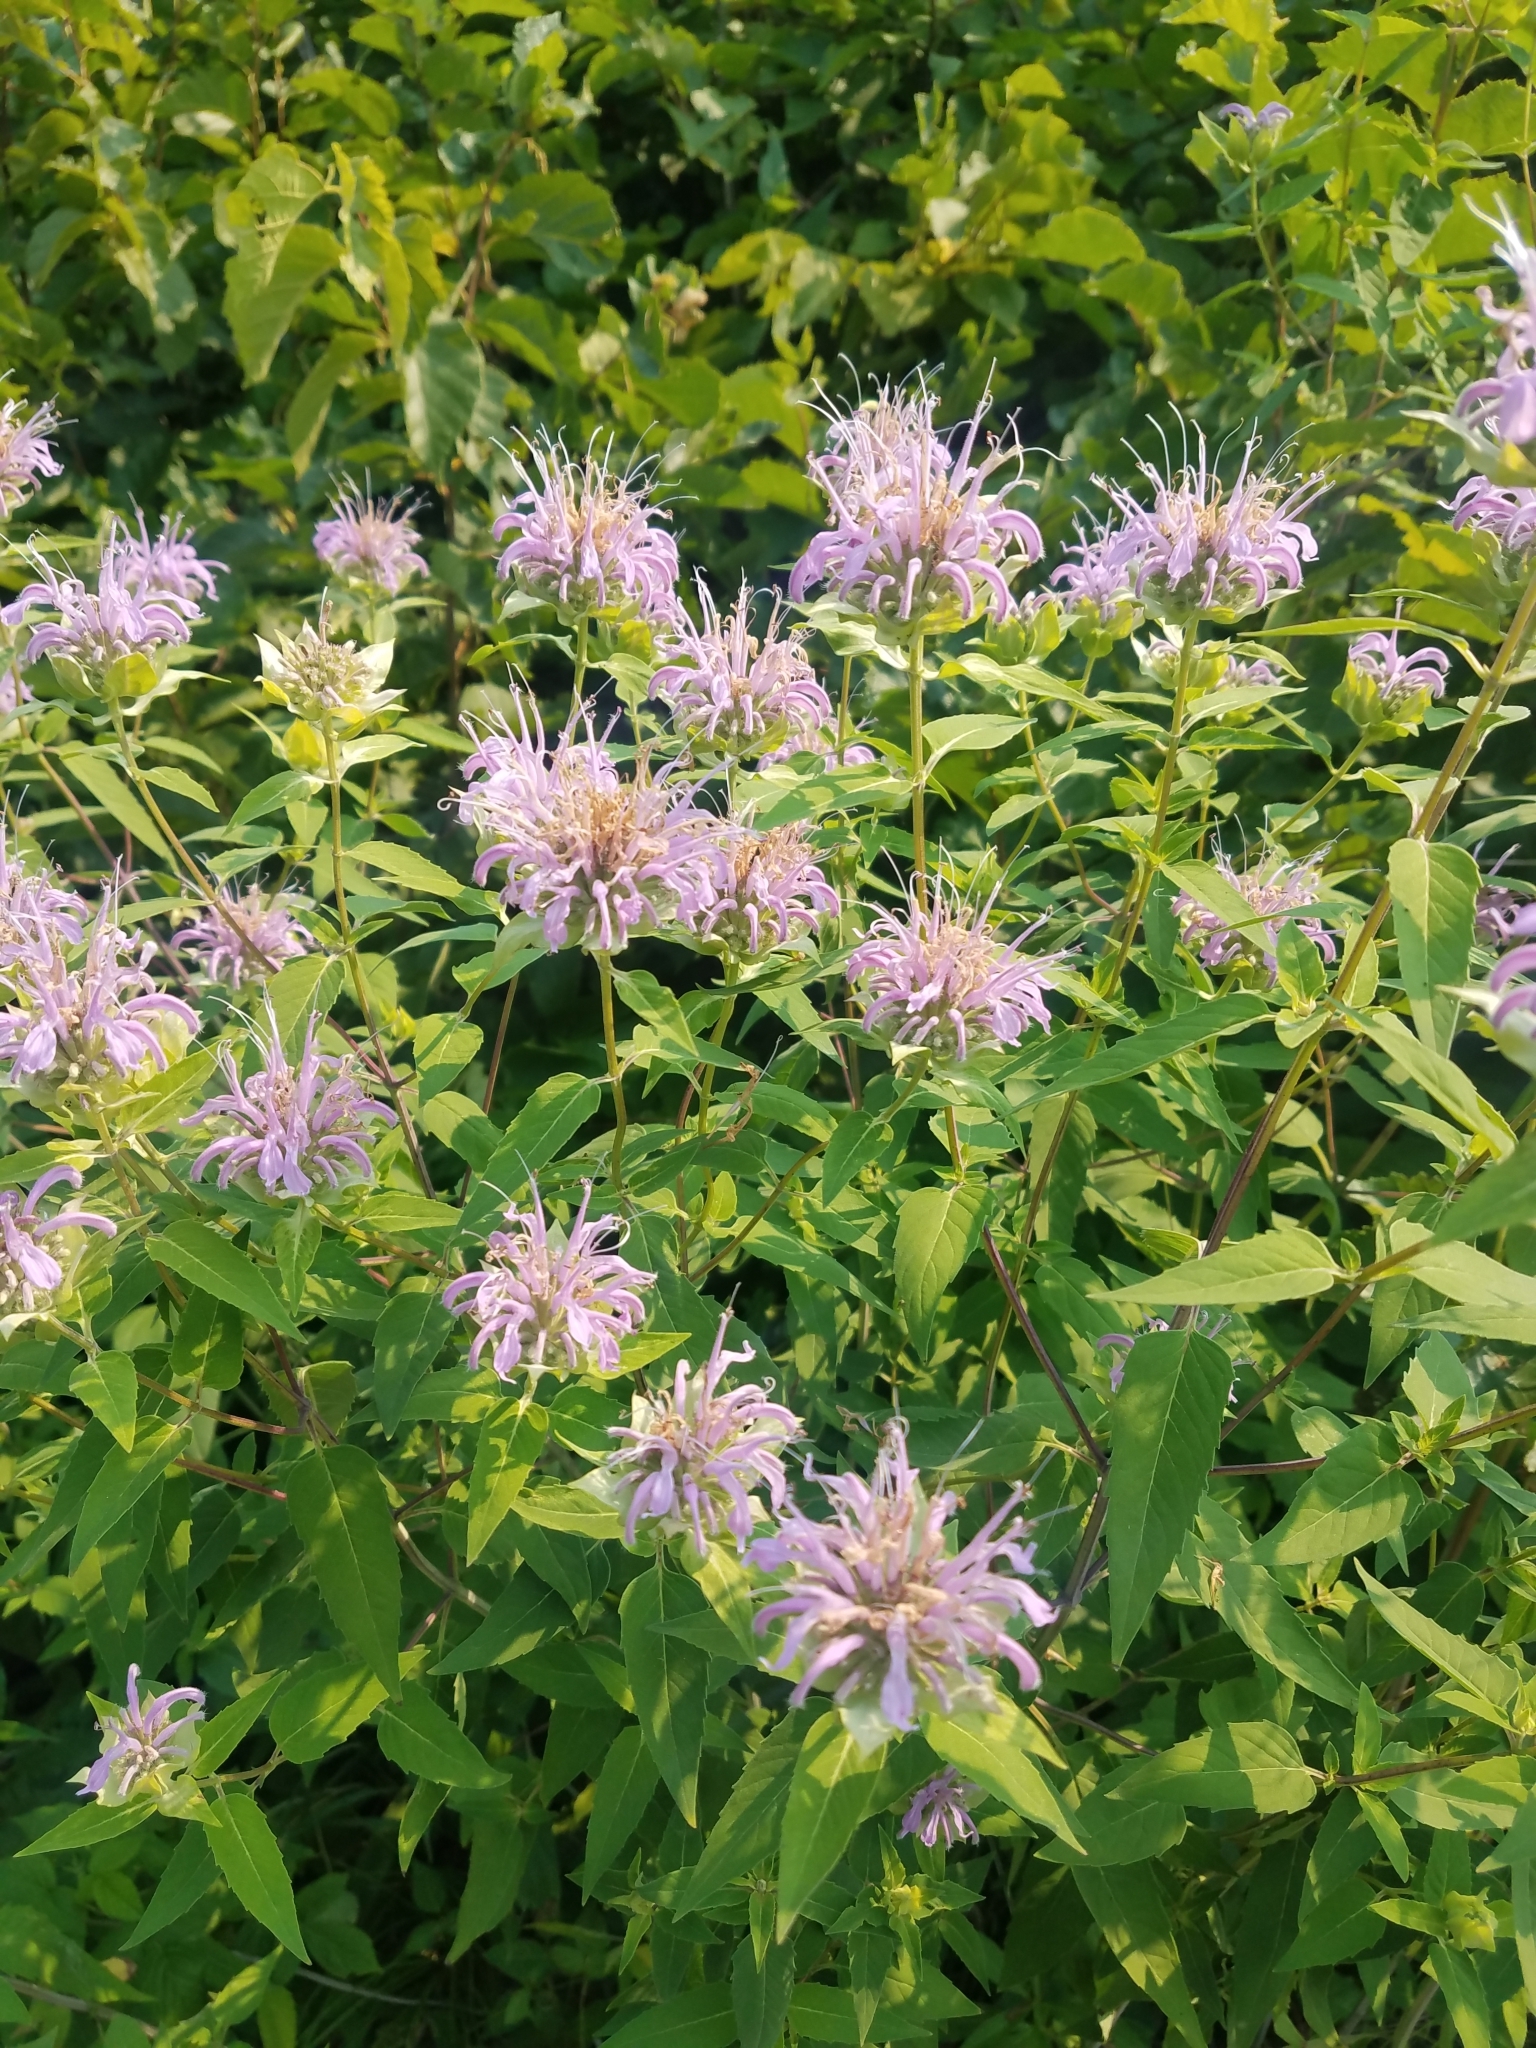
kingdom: Plantae
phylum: Tracheophyta
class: Magnoliopsida
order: Lamiales
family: Lamiaceae
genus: Monarda
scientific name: Monarda fistulosa
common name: Purple beebalm
